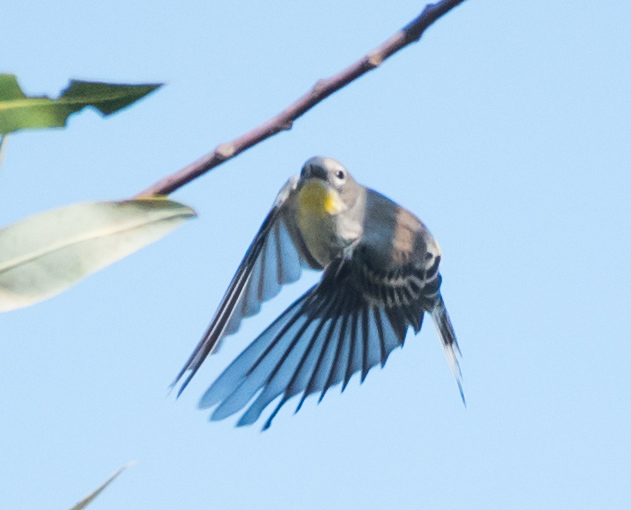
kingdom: Animalia
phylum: Chordata
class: Aves
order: Passeriformes
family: Parulidae
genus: Setophaga
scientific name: Setophaga coronata
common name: Myrtle warbler
